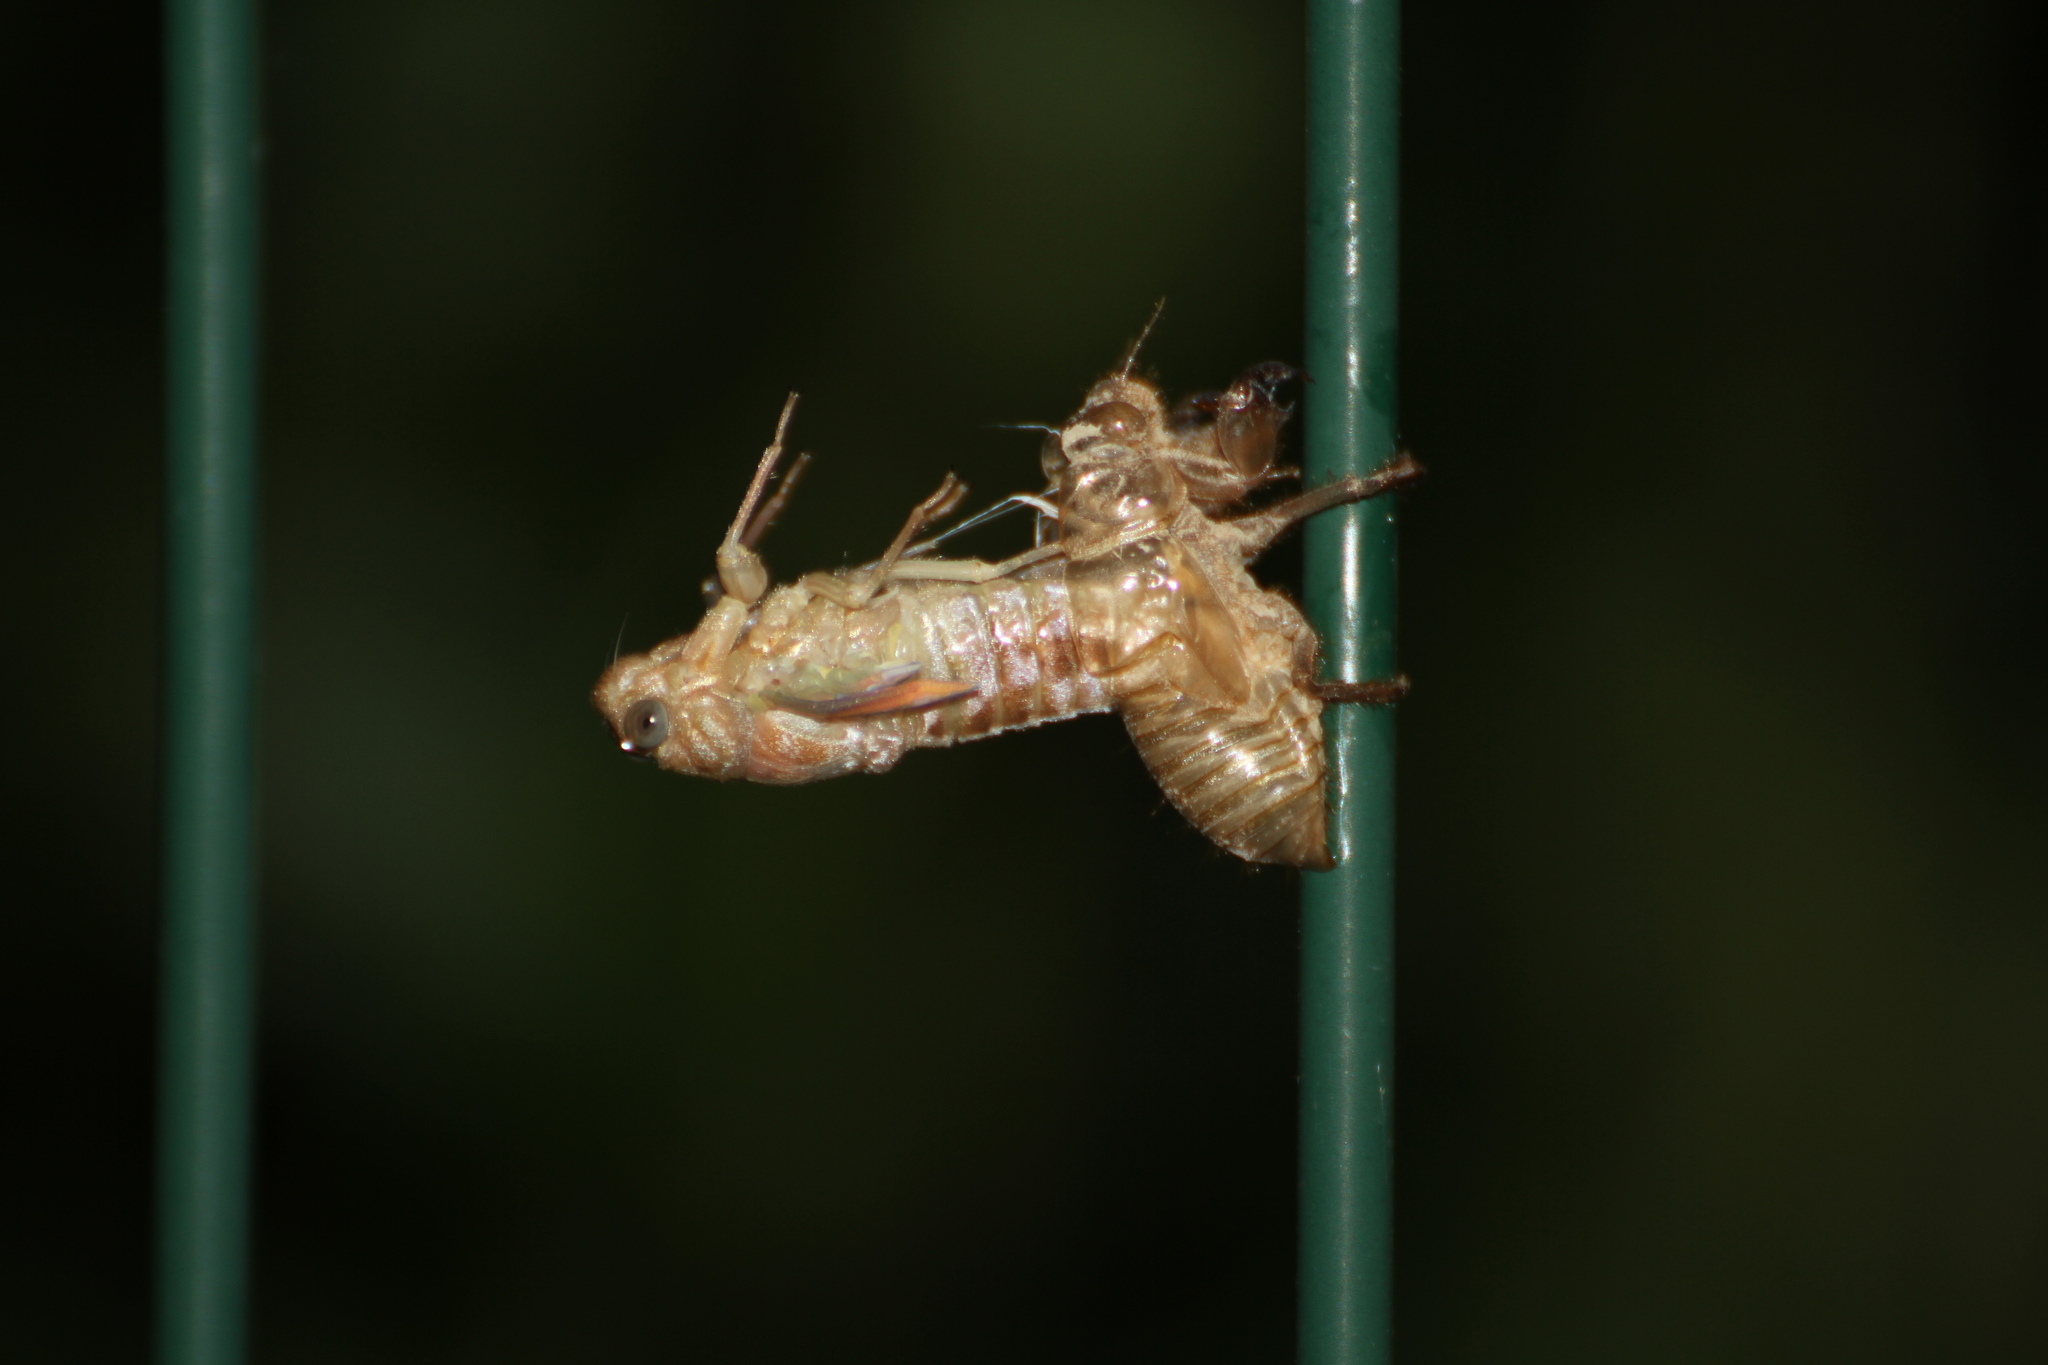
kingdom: Animalia
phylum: Arthropoda
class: Insecta
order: Hemiptera
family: Cicadidae
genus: Cicada
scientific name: Cicada orni
